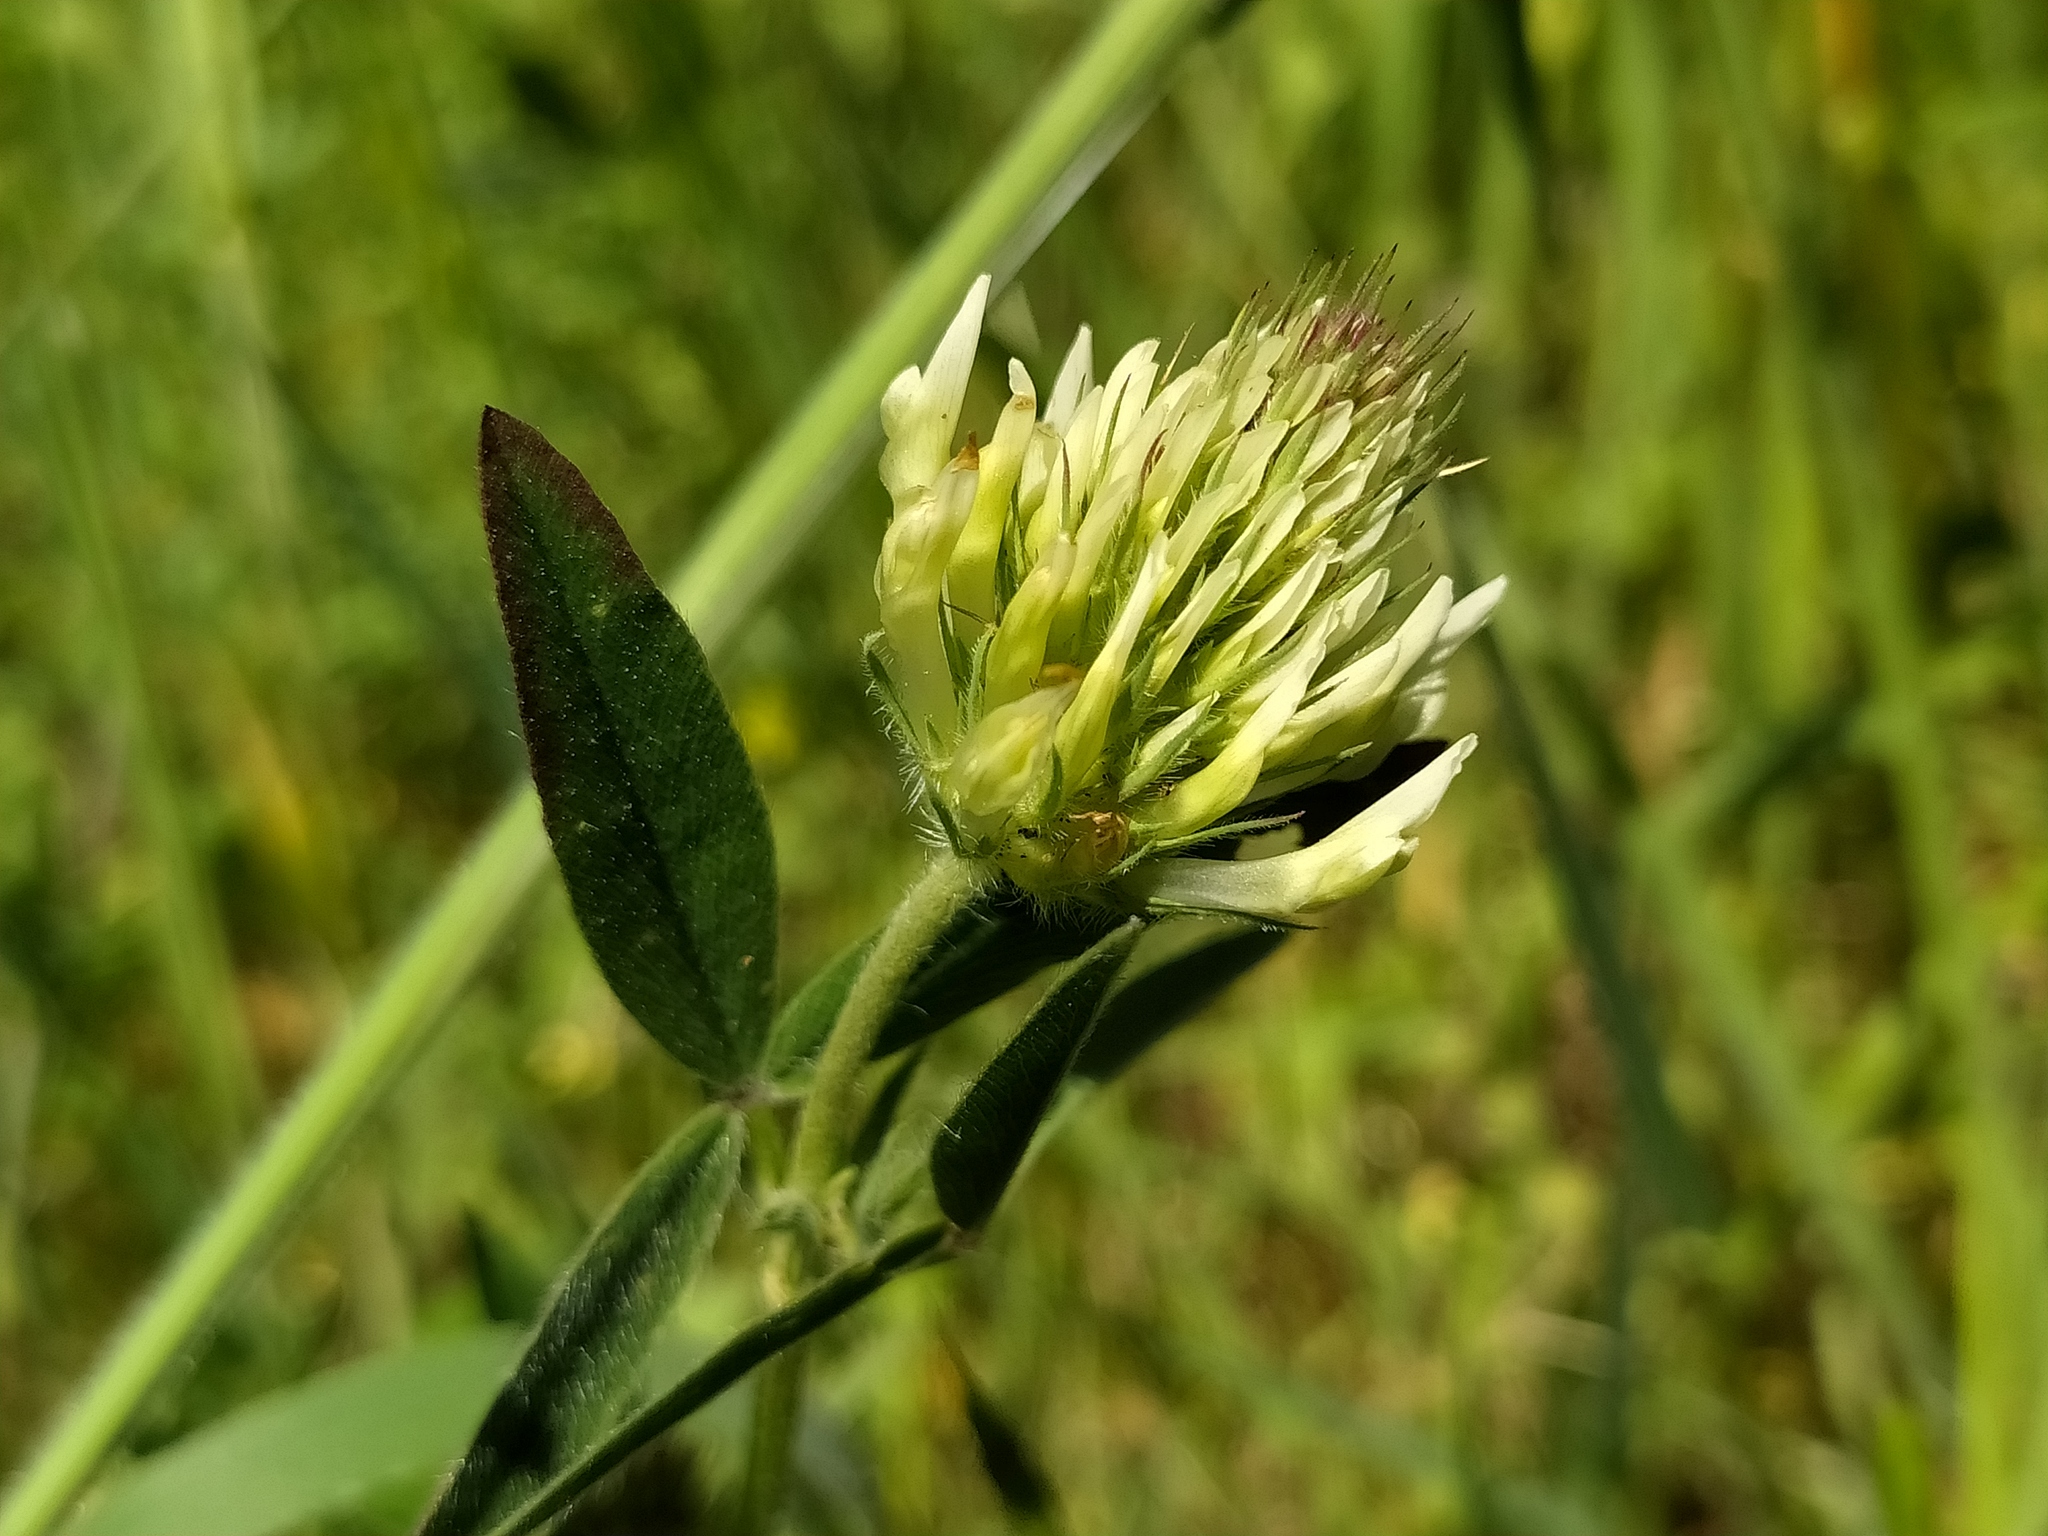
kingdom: Plantae
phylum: Tracheophyta
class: Magnoliopsida
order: Fabales
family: Fabaceae
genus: Trifolium
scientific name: Trifolium ochroleucon
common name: Sulphur clover
